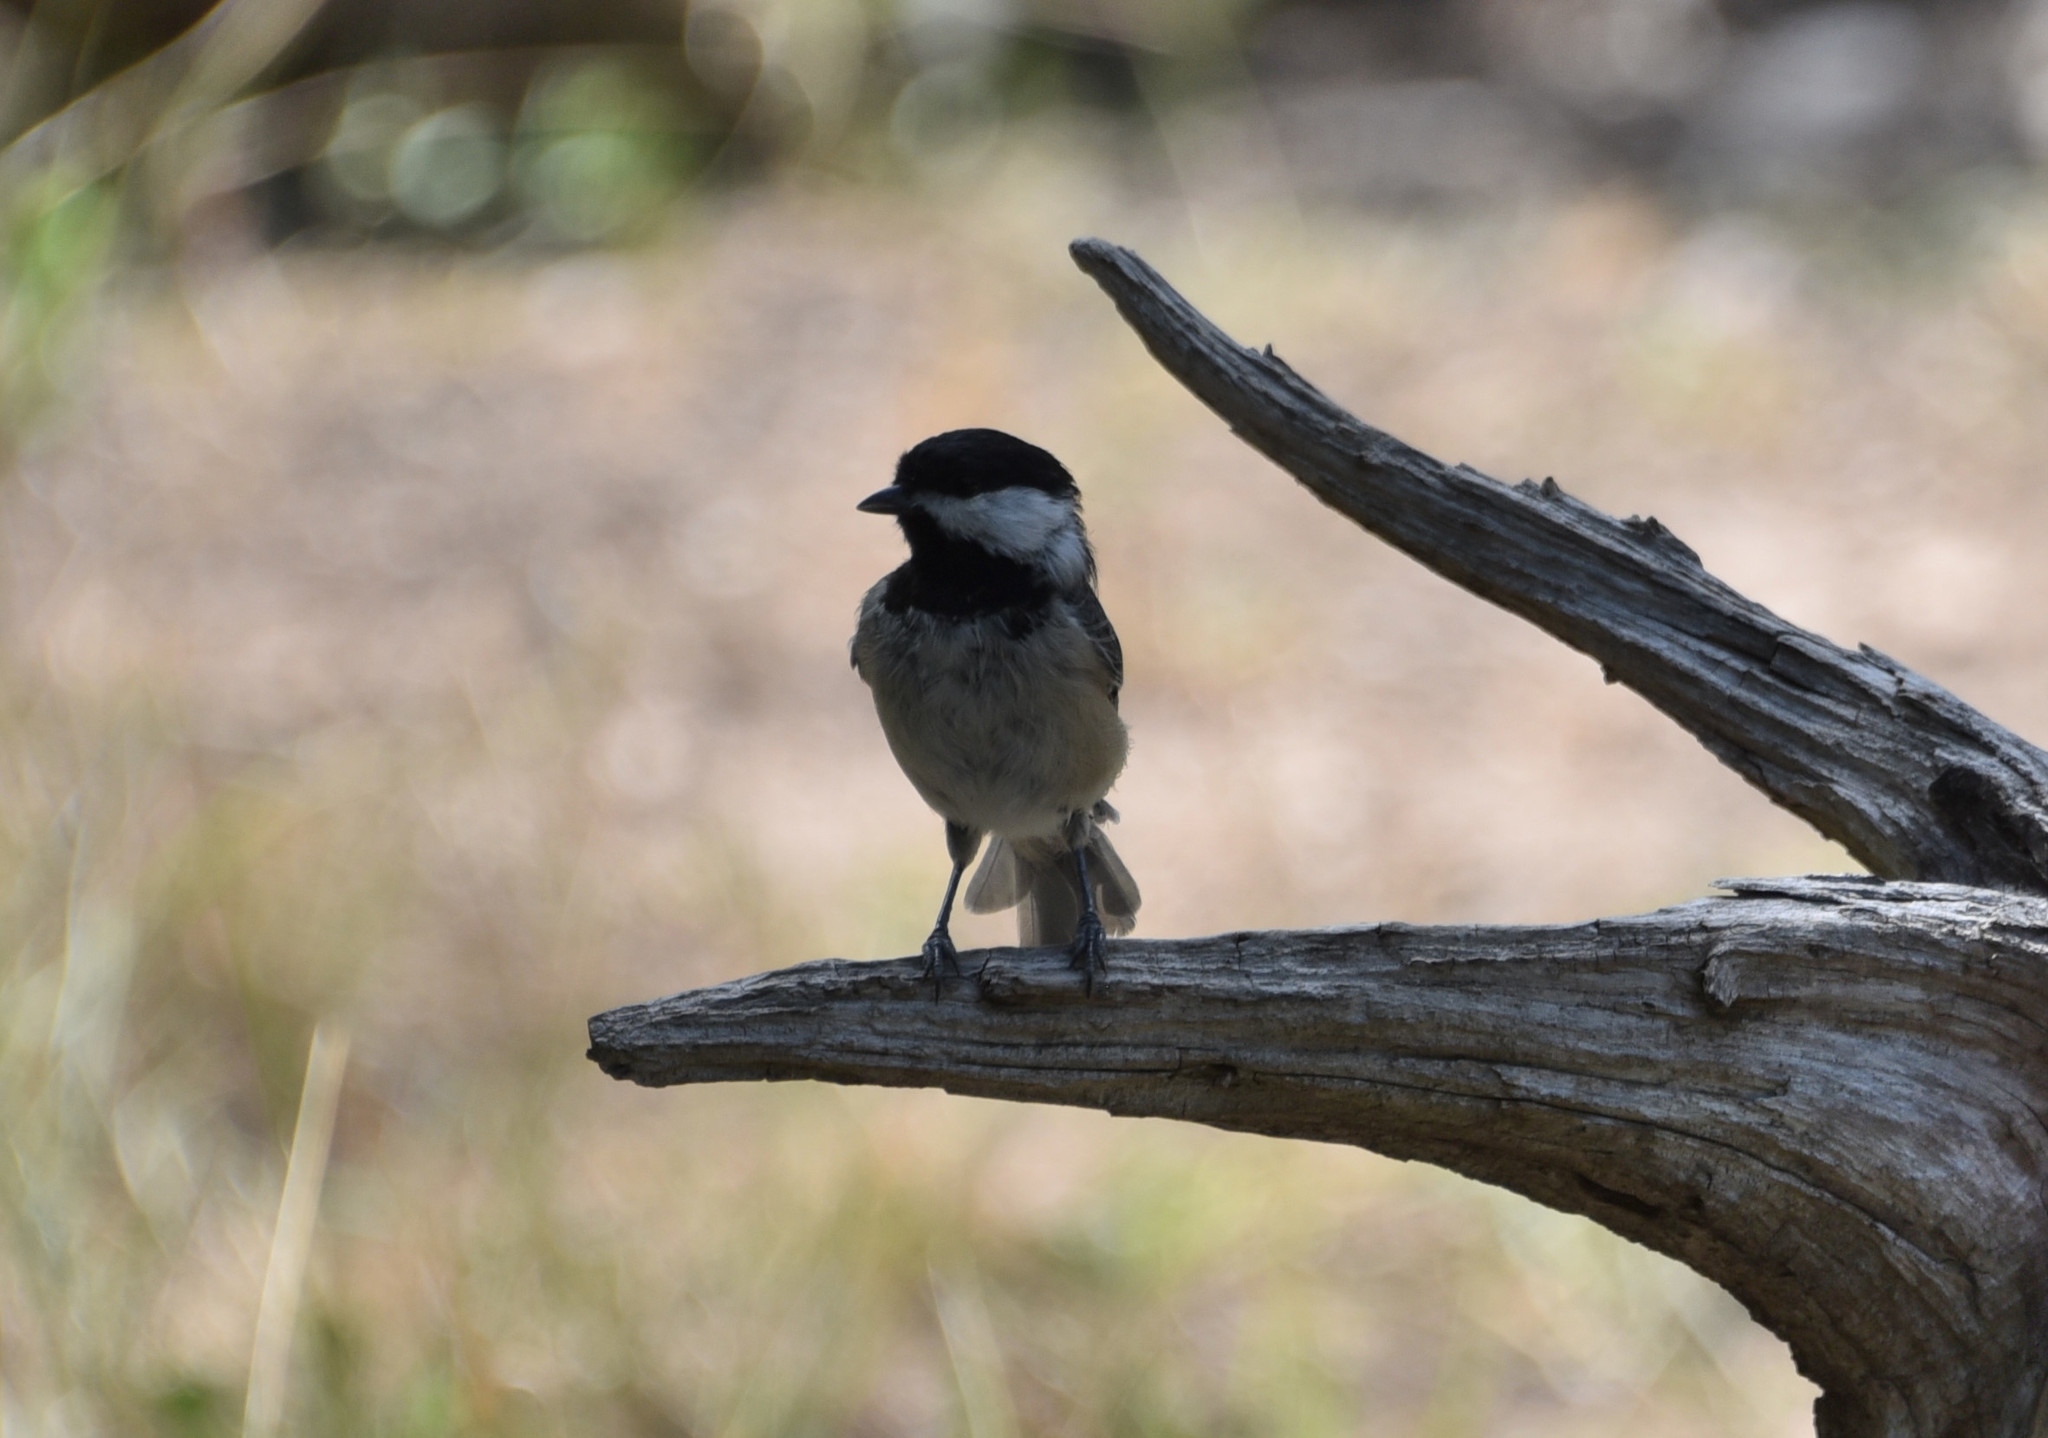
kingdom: Animalia
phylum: Chordata
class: Aves
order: Passeriformes
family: Paridae
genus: Poecile
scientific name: Poecile carolinensis
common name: Carolina chickadee
